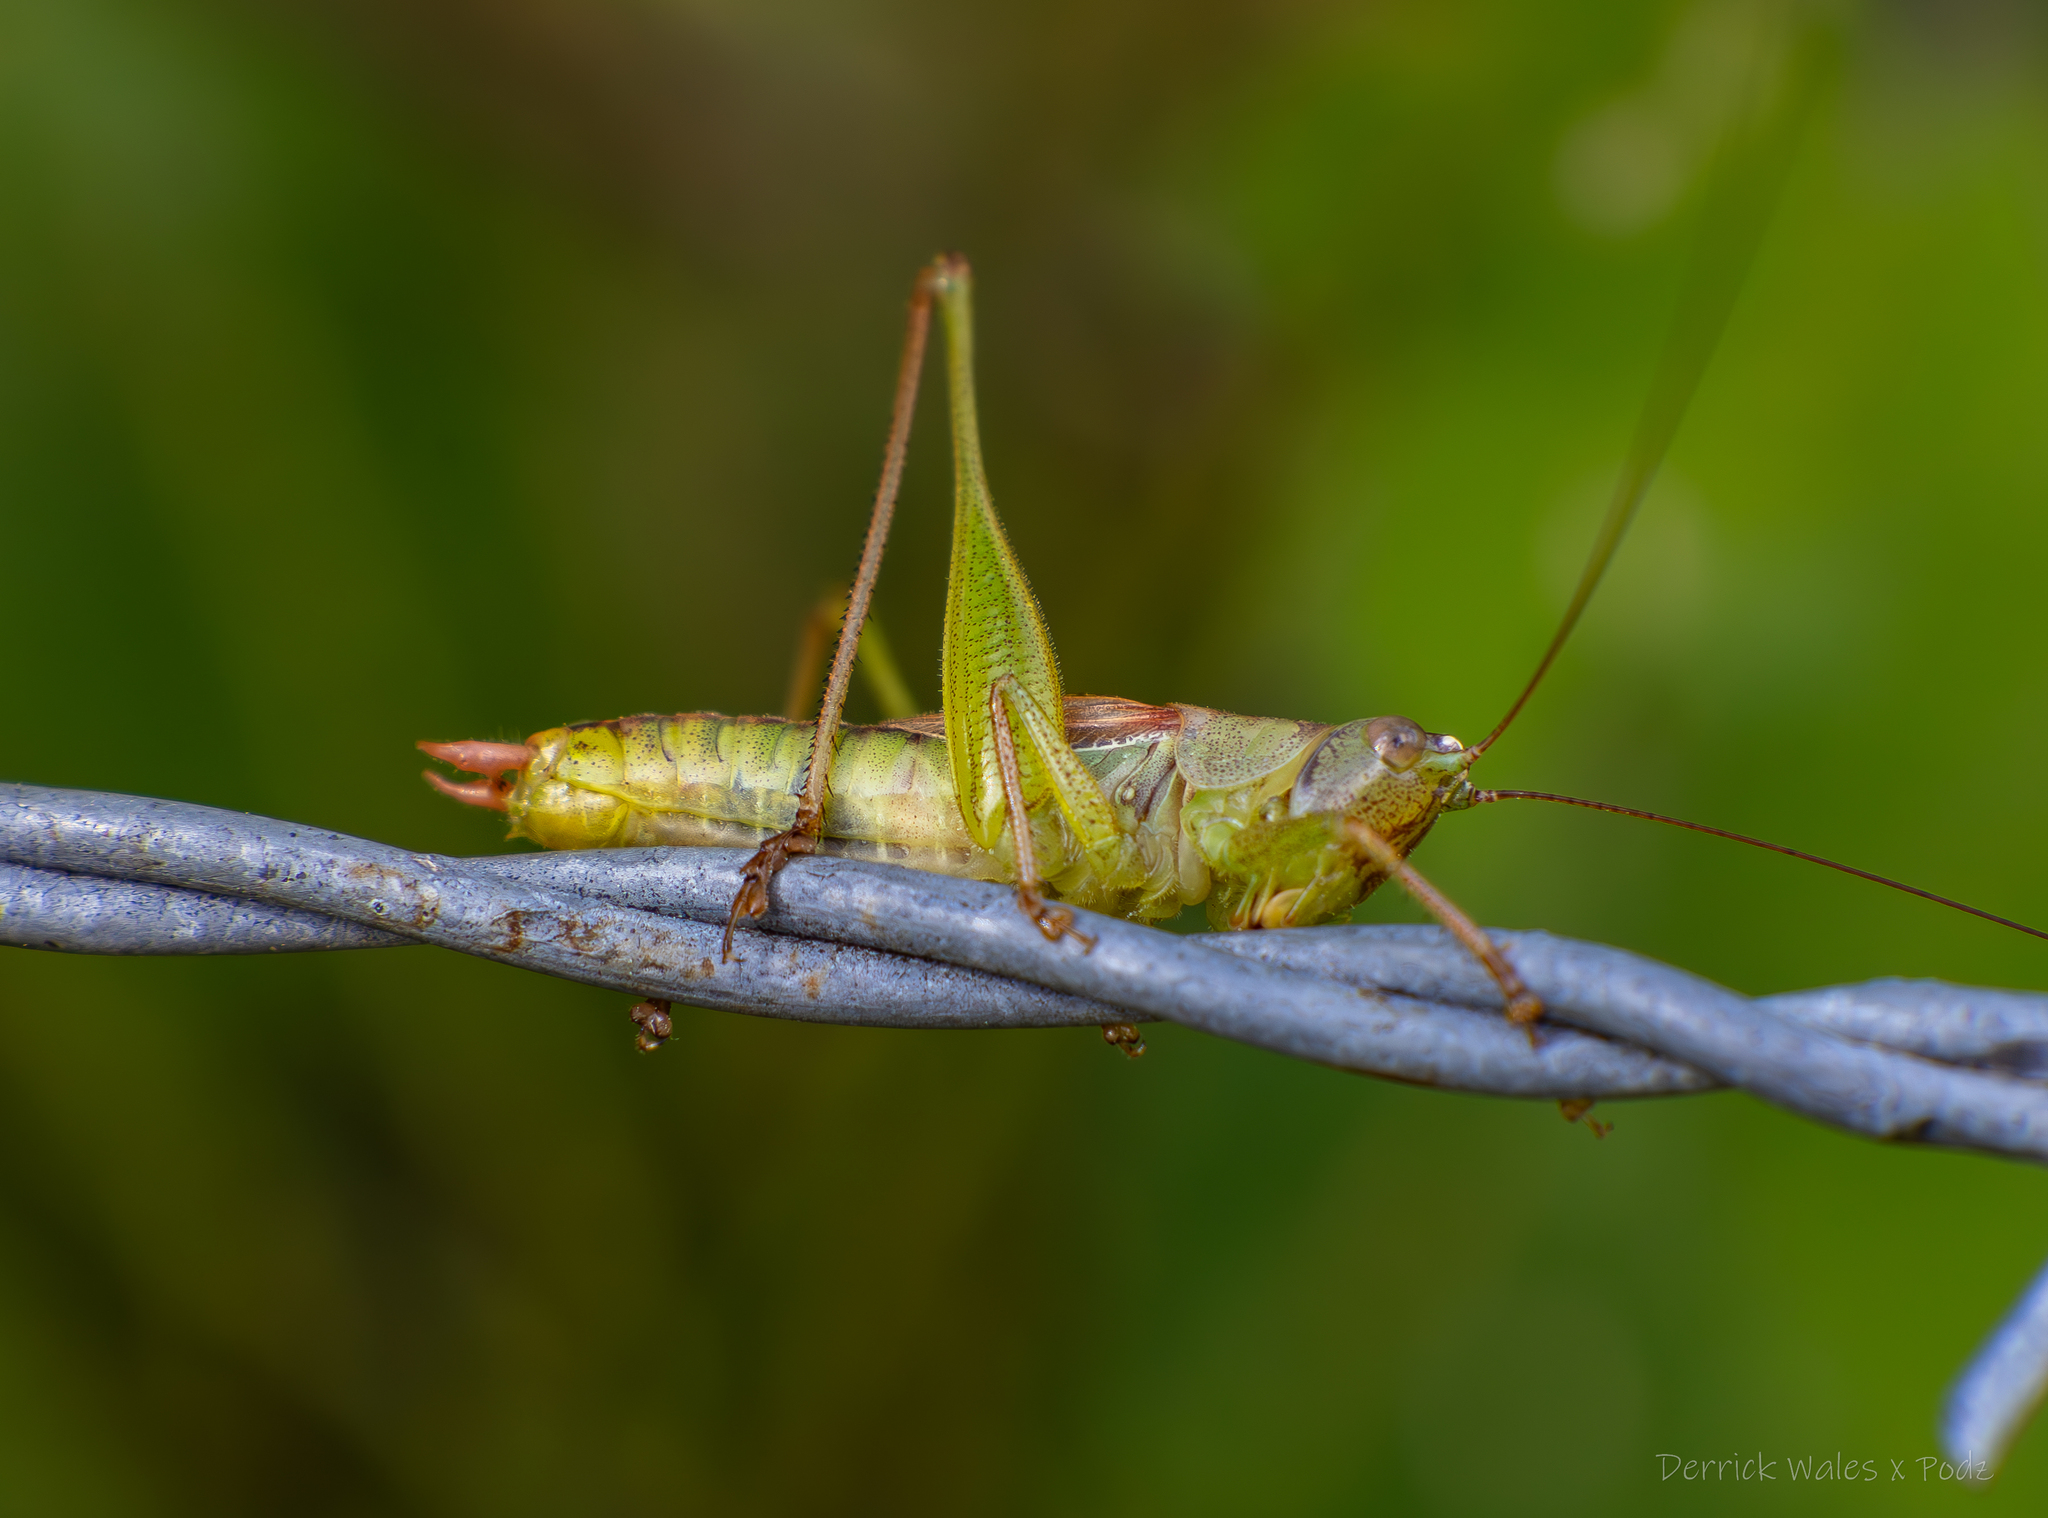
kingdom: Animalia
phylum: Arthropoda
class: Insecta
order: Orthoptera
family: Tettigoniidae
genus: Conocephalus
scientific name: Conocephalus strictus
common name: Straight-lanced katydid
